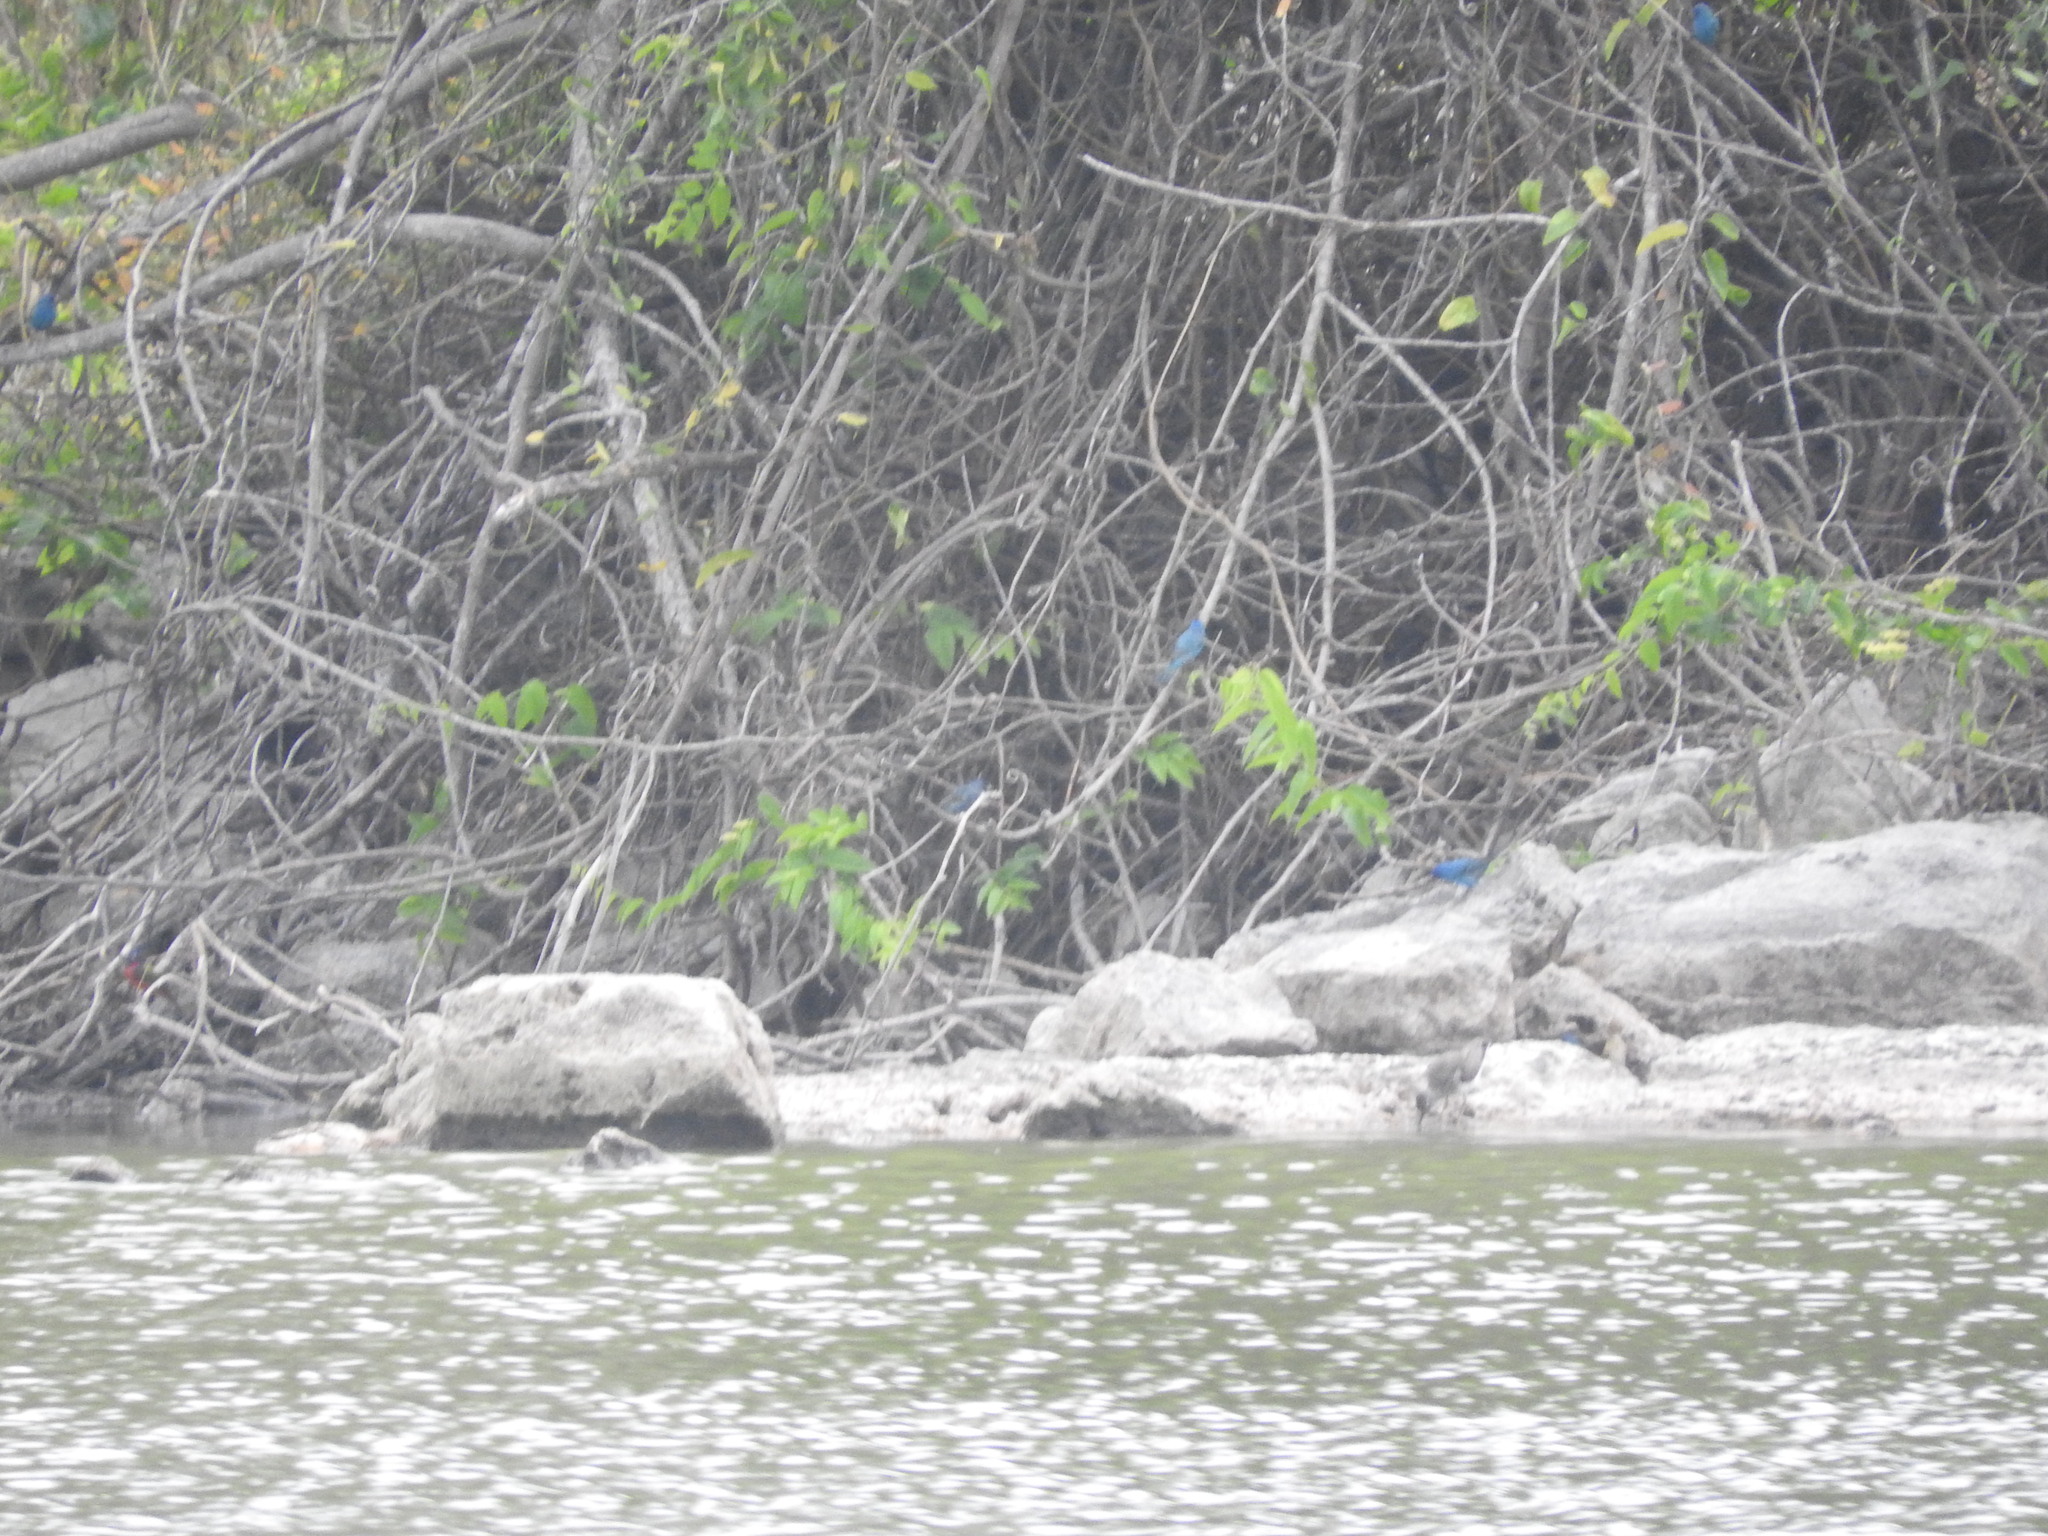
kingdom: Animalia
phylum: Chordata
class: Aves
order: Passeriformes
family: Cardinalidae
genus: Passerina
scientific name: Passerina cyanea
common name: Indigo bunting
